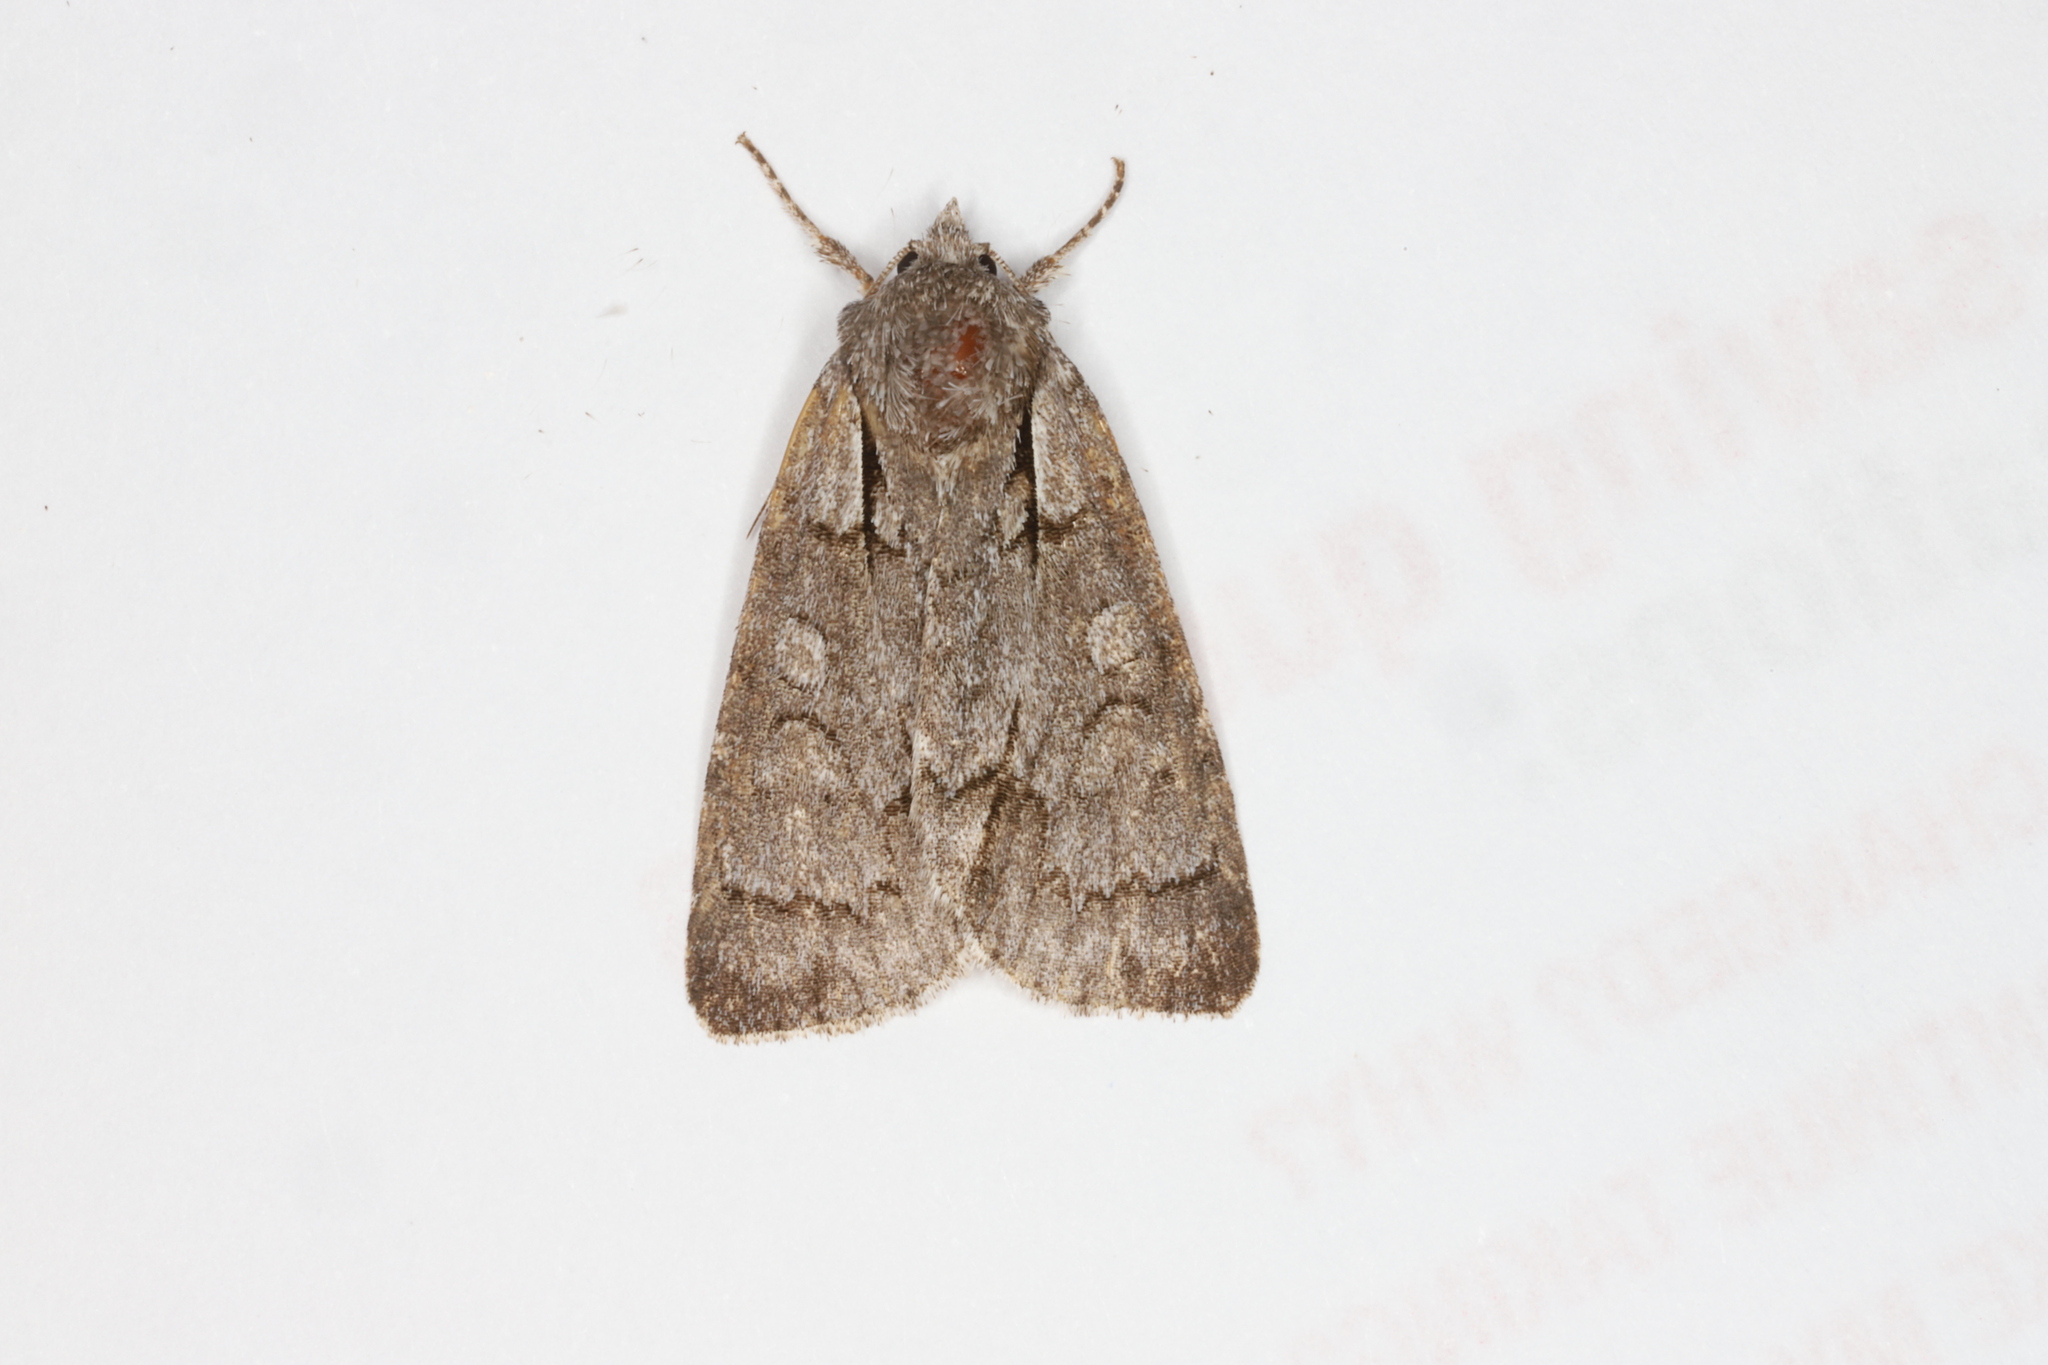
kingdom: Animalia
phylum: Arthropoda
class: Insecta
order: Lepidoptera
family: Noctuidae
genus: Acronicta
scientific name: Acronicta grisea
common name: Gray dagger
